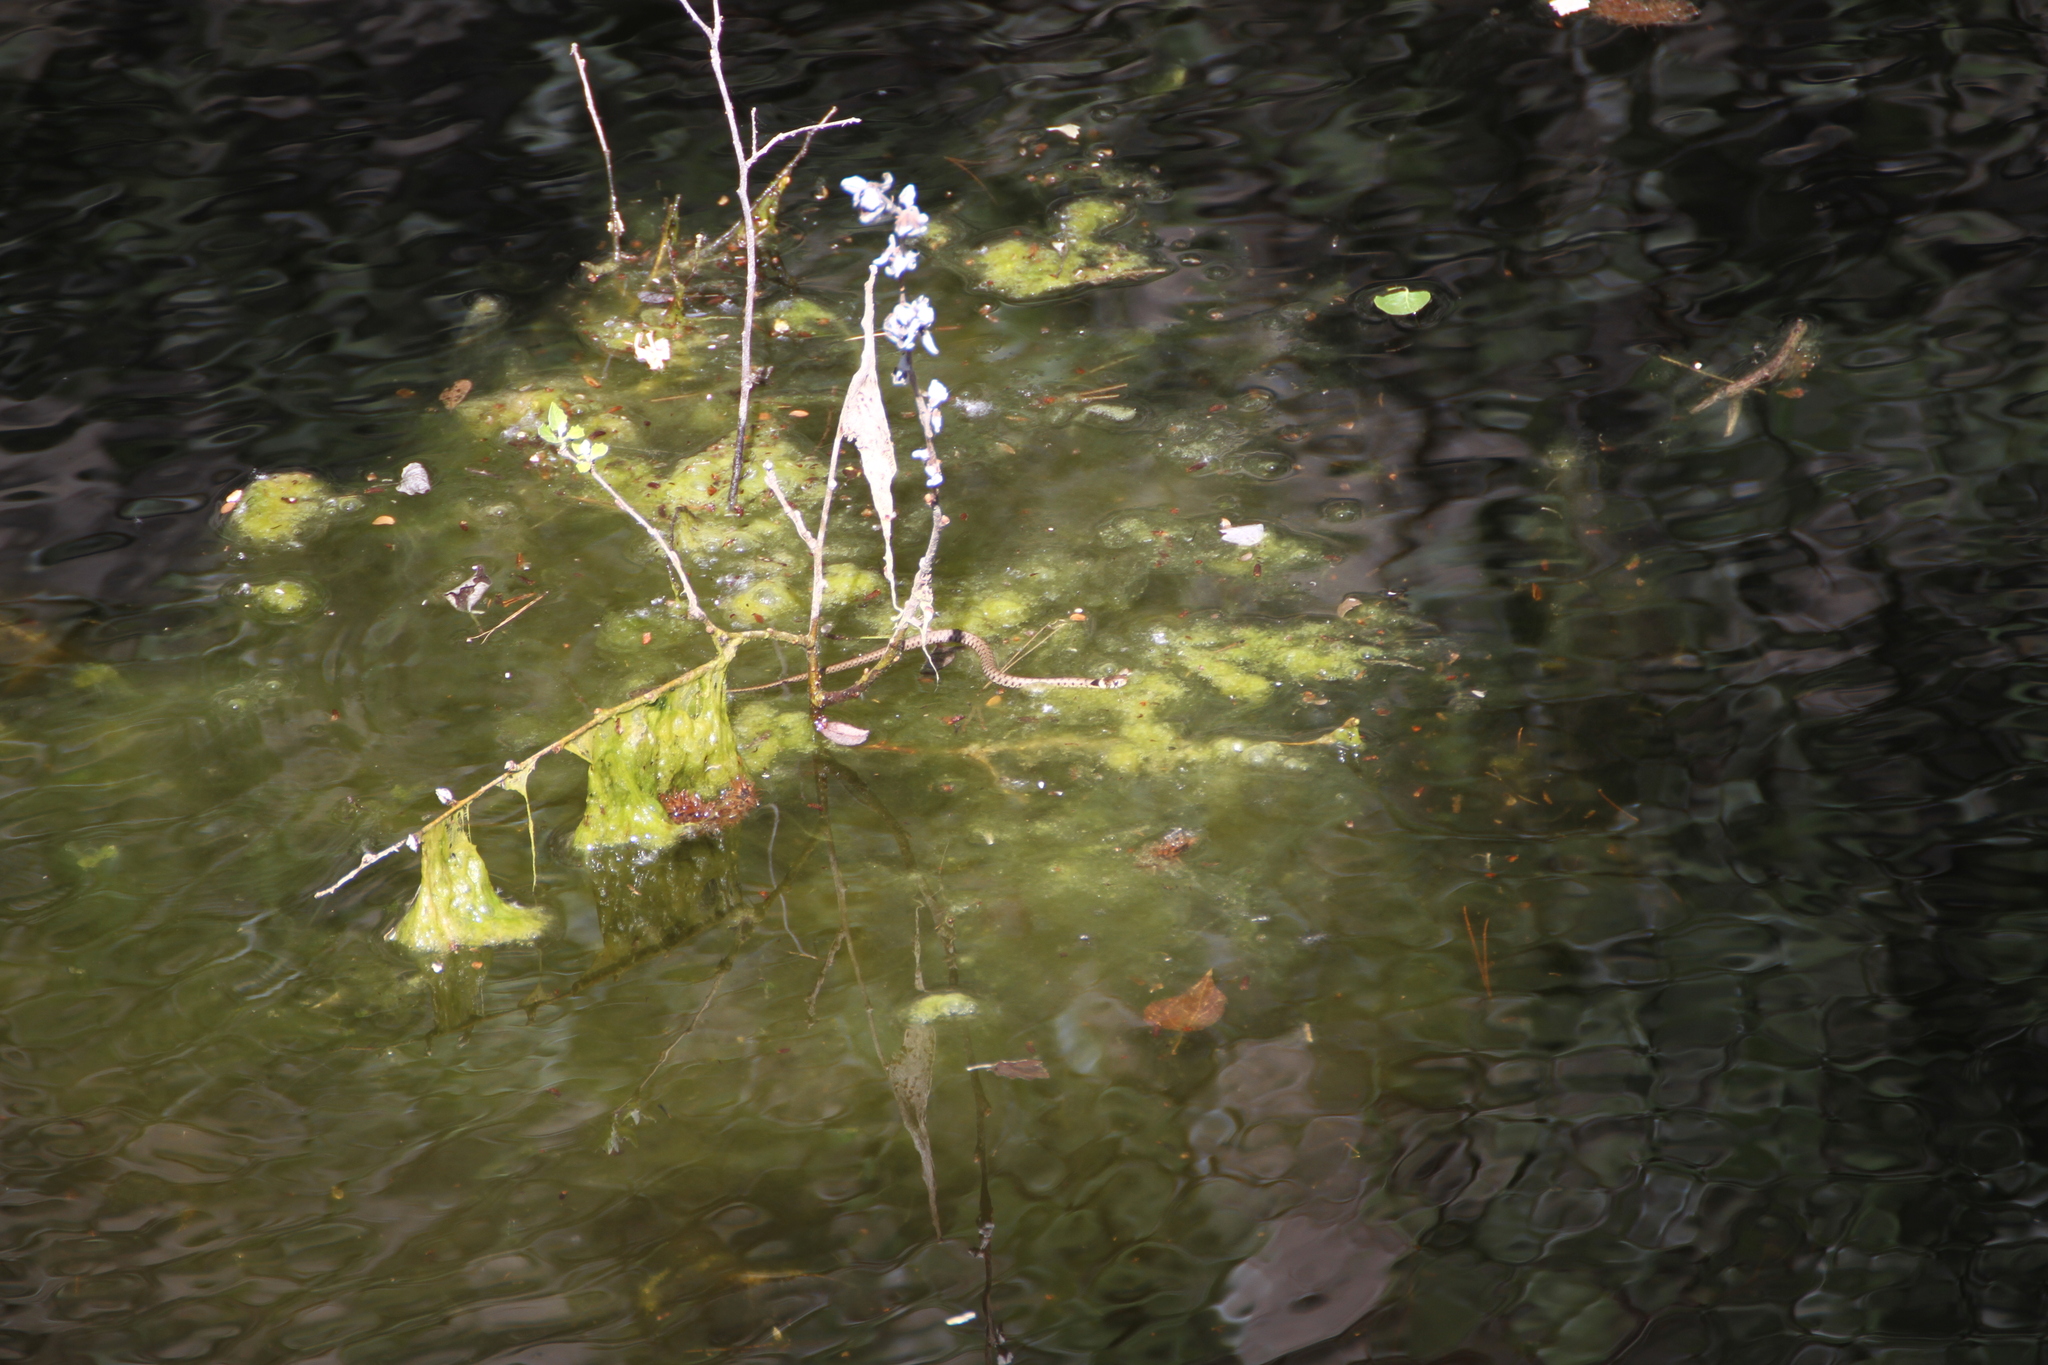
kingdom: Animalia
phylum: Chordata
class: Squamata
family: Colubridae
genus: Natrix
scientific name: Natrix helvetica
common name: Banded grass snake
